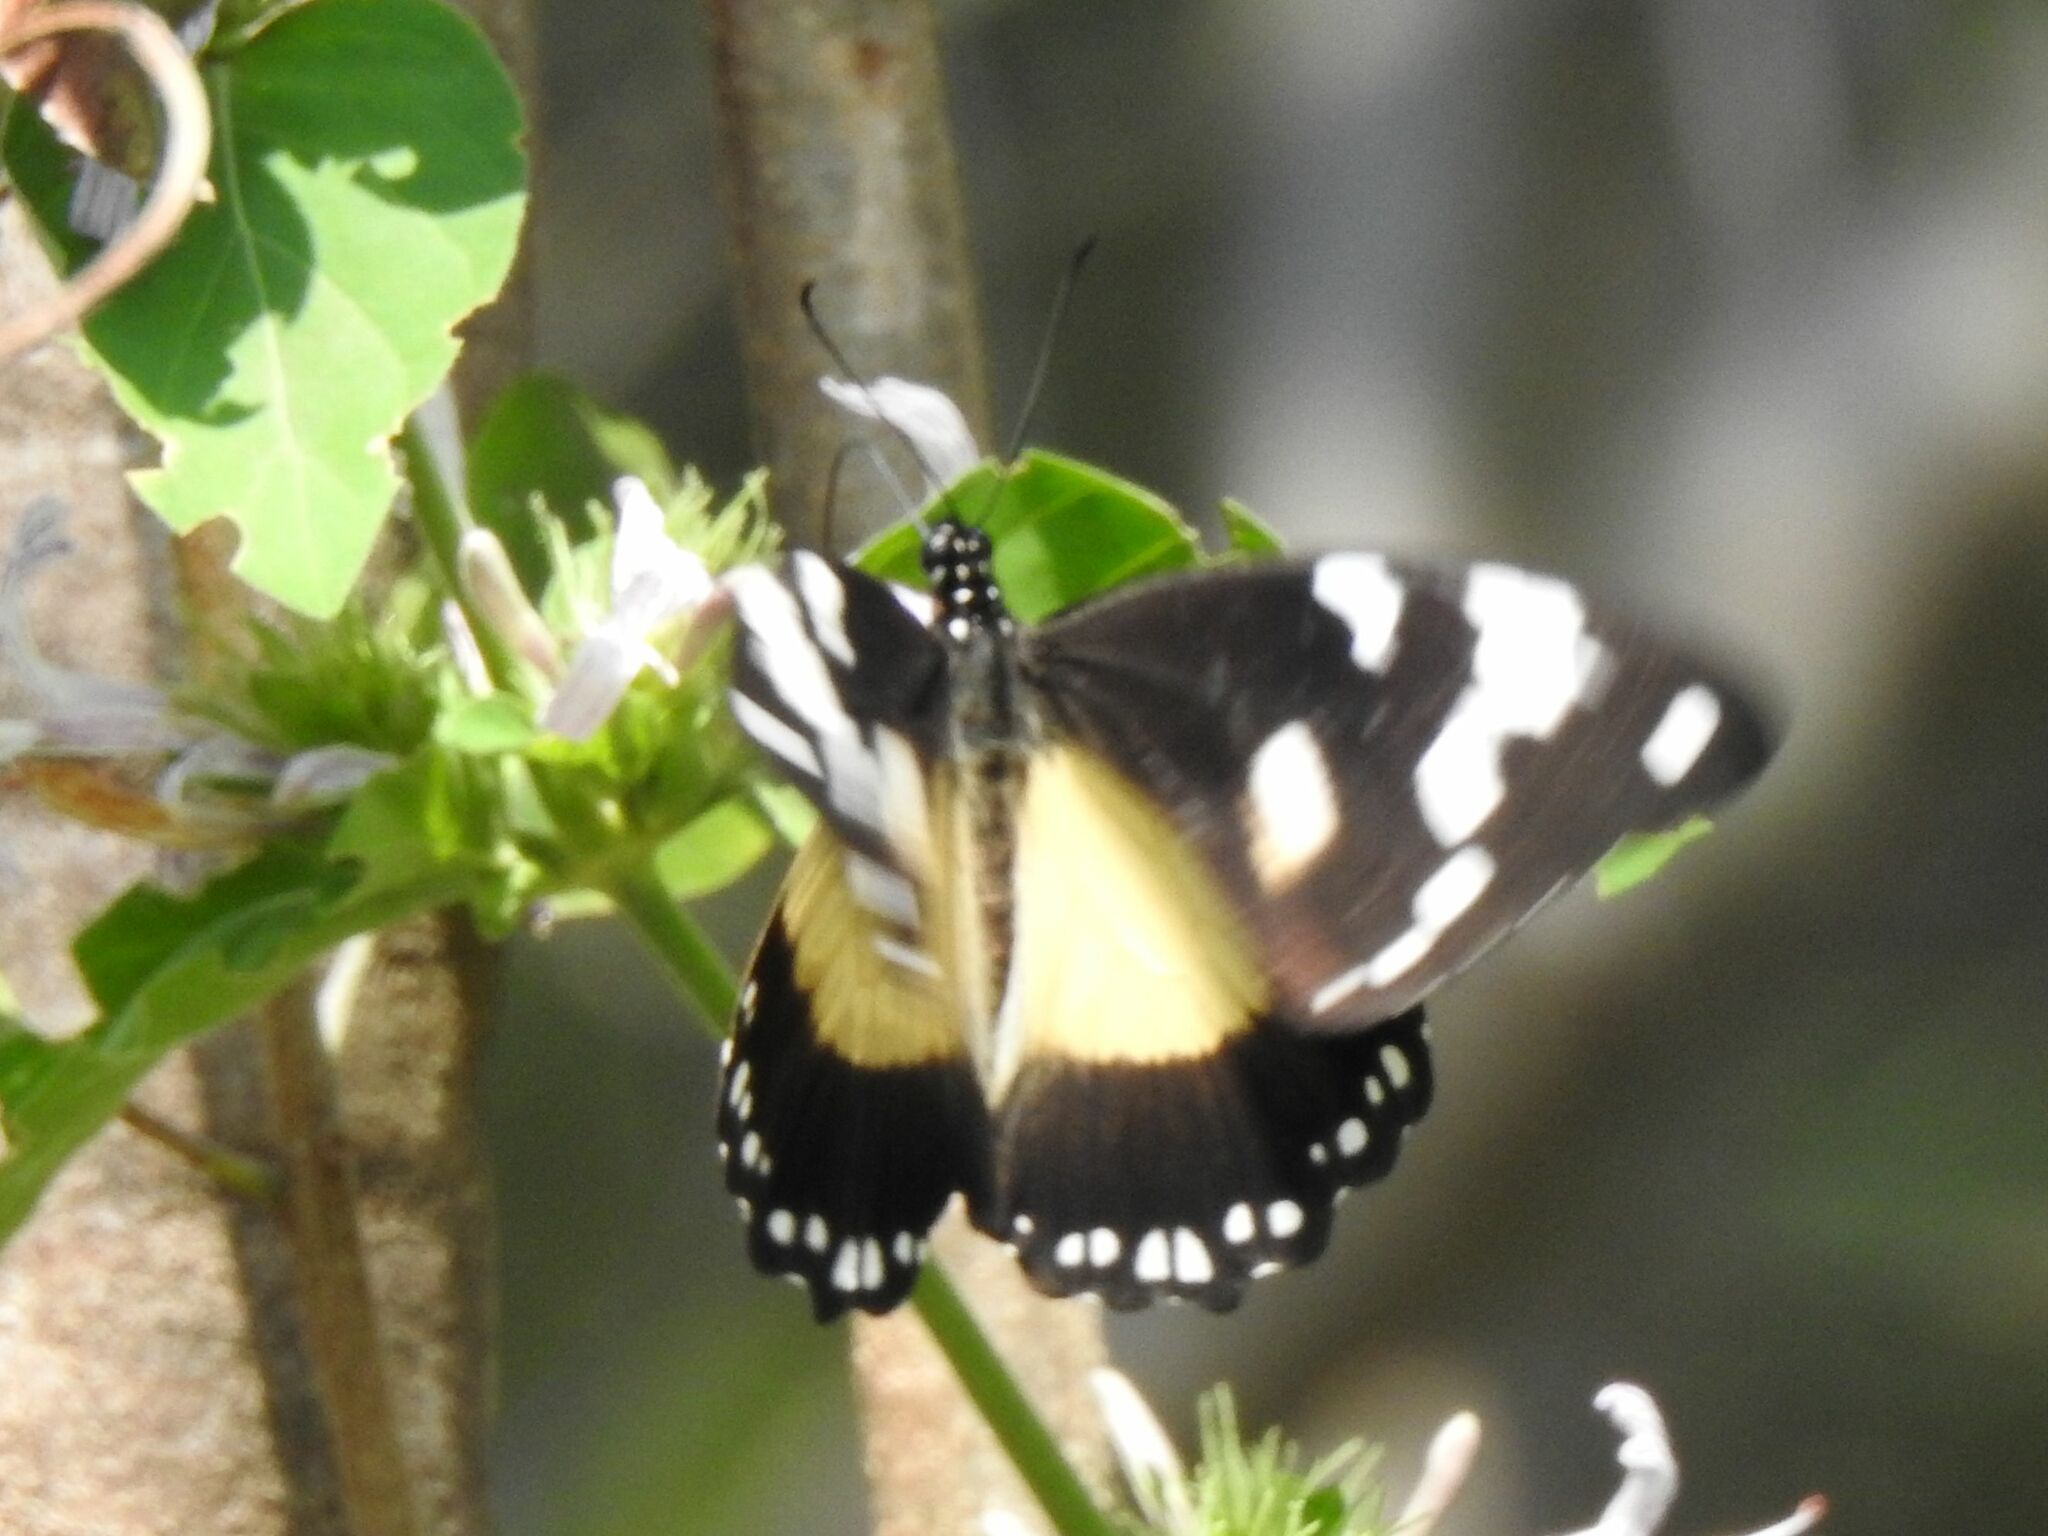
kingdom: Animalia
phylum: Arthropoda
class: Insecta
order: Lepidoptera
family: Papilionidae
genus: Papilio
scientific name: Papilio dardanus
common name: Flying handkerchief
